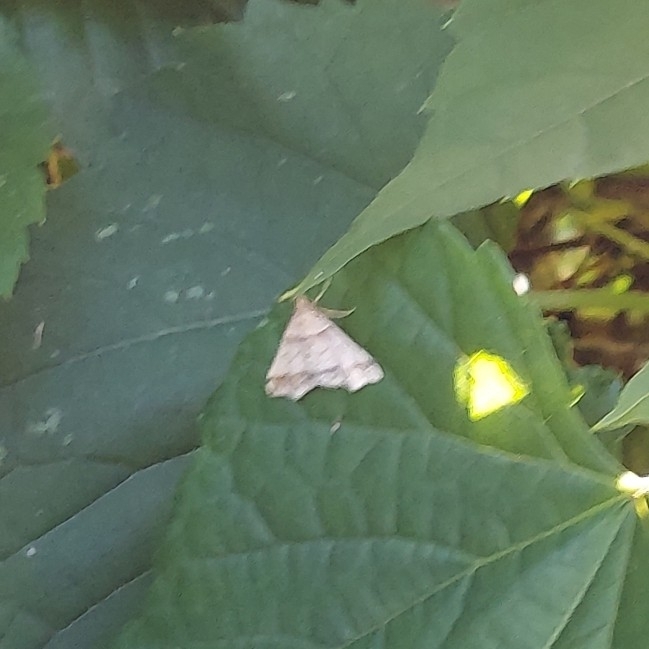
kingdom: Animalia
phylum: Arthropoda
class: Insecta
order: Lepidoptera
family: Erebidae
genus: Phaeolita
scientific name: Phaeolita pyramusalis
